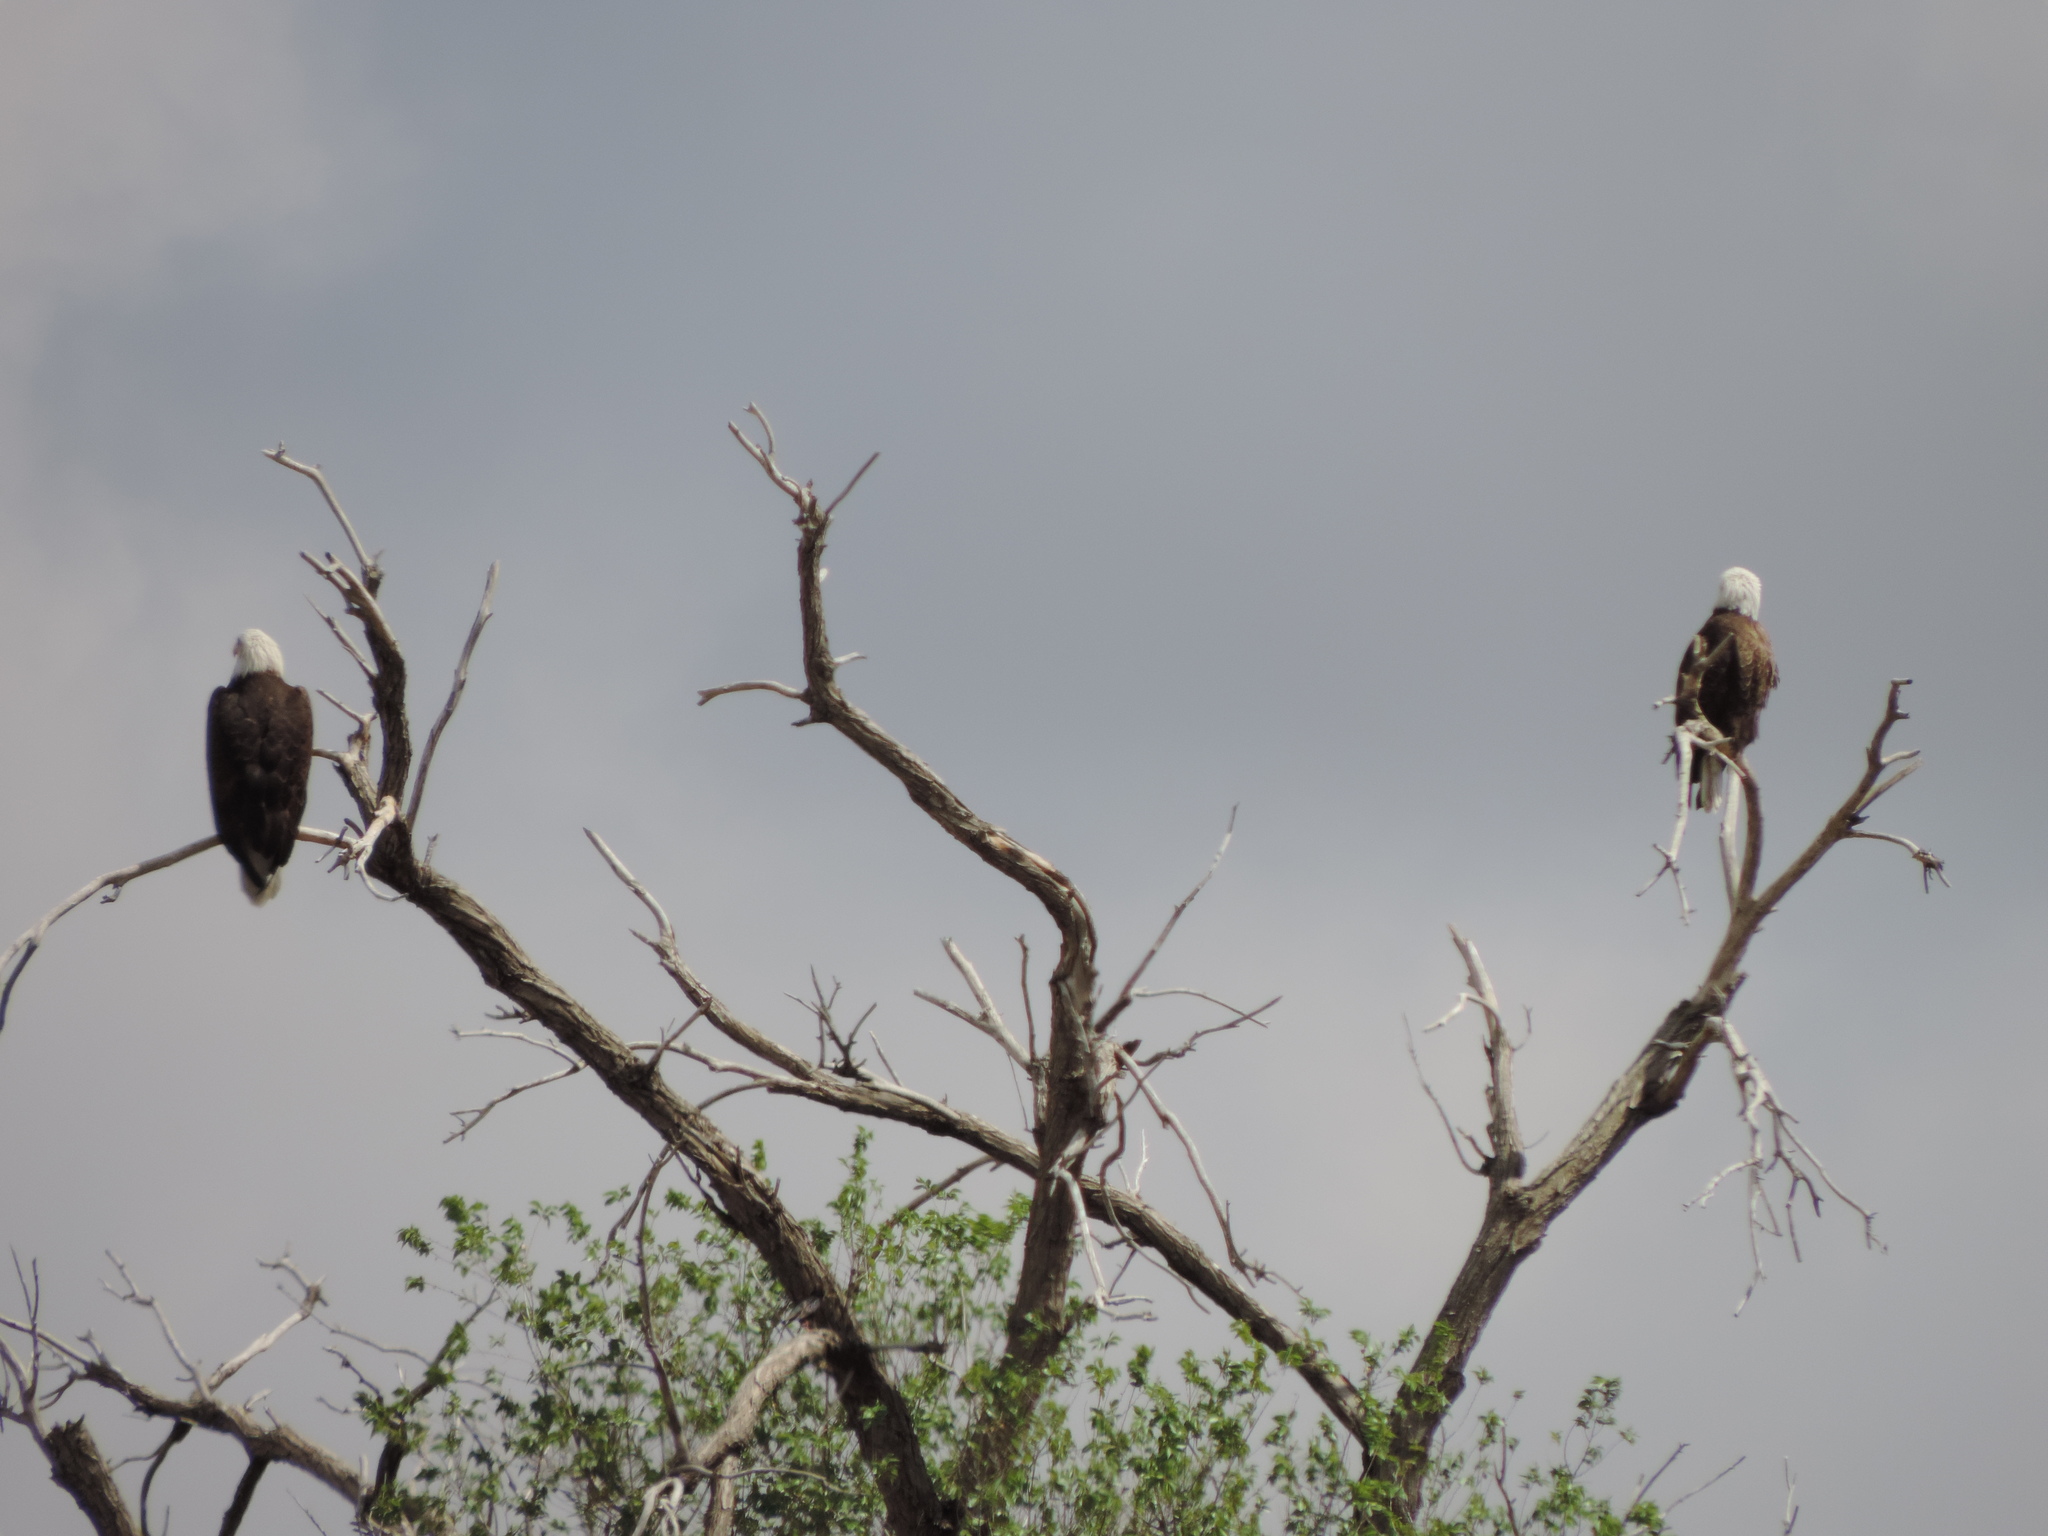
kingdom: Animalia
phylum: Chordata
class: Aves
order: Accipitriformes
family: Accipitridae
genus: Haliaeetus
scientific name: Haliaeetus leucocephalus
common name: Bald eagle
